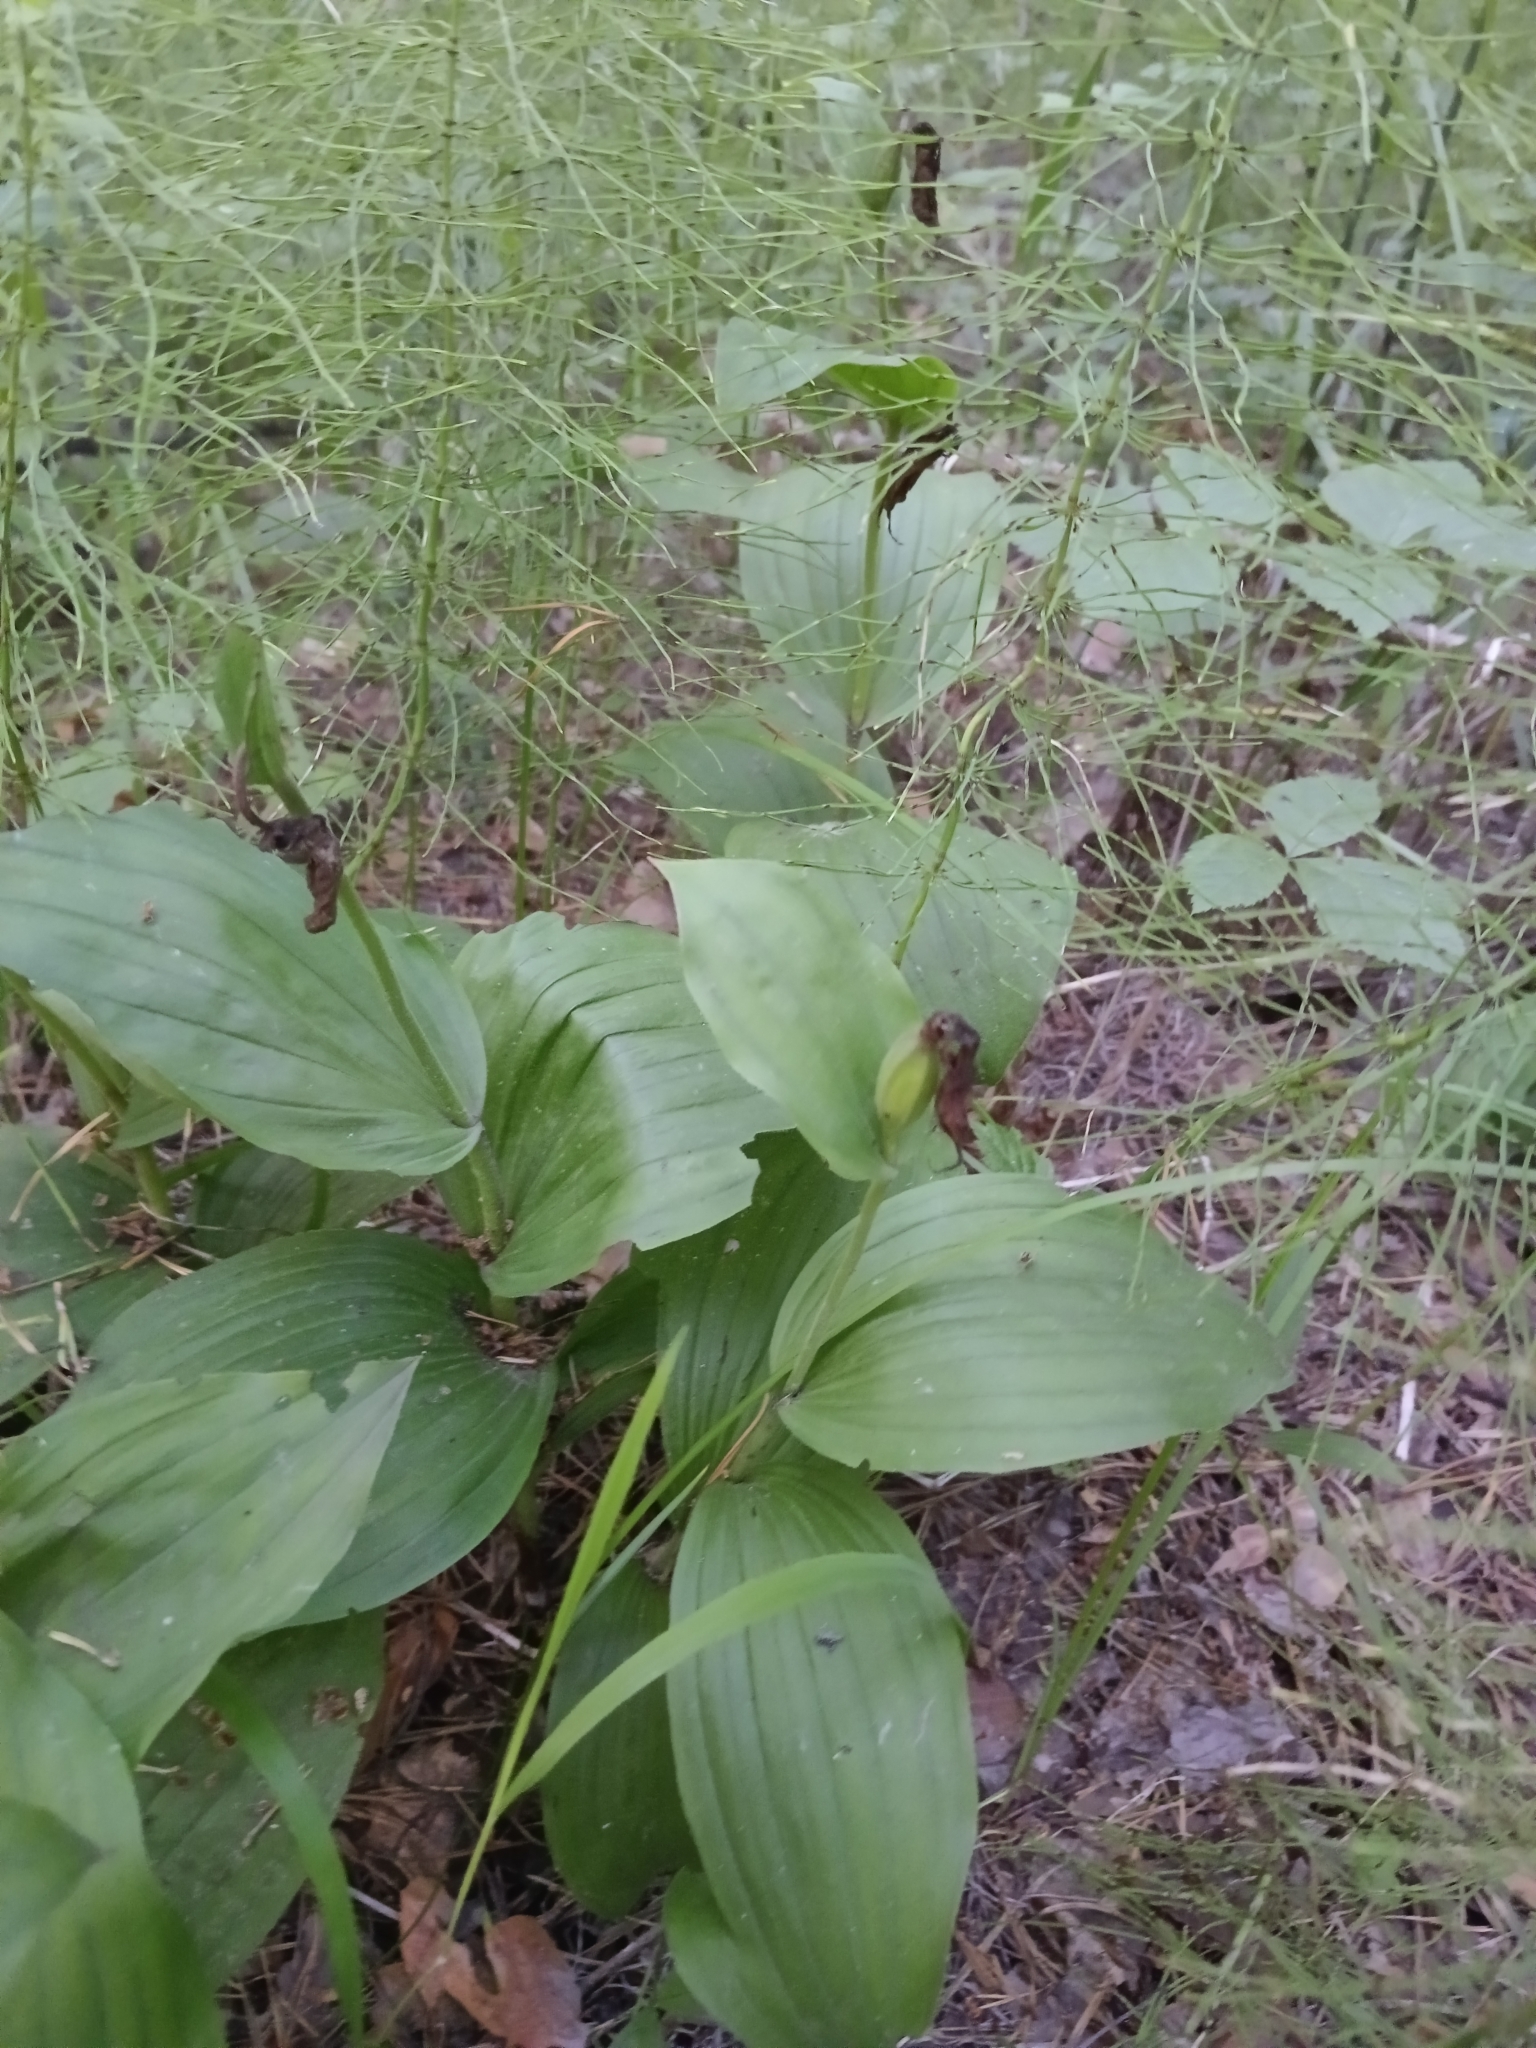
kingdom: Plantae
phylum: Tracheophyta
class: Liliopsida
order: Asparagales
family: Orchidaceae
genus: Cypripedium
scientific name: Cypripedium calceolus
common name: Lady's-slipper
